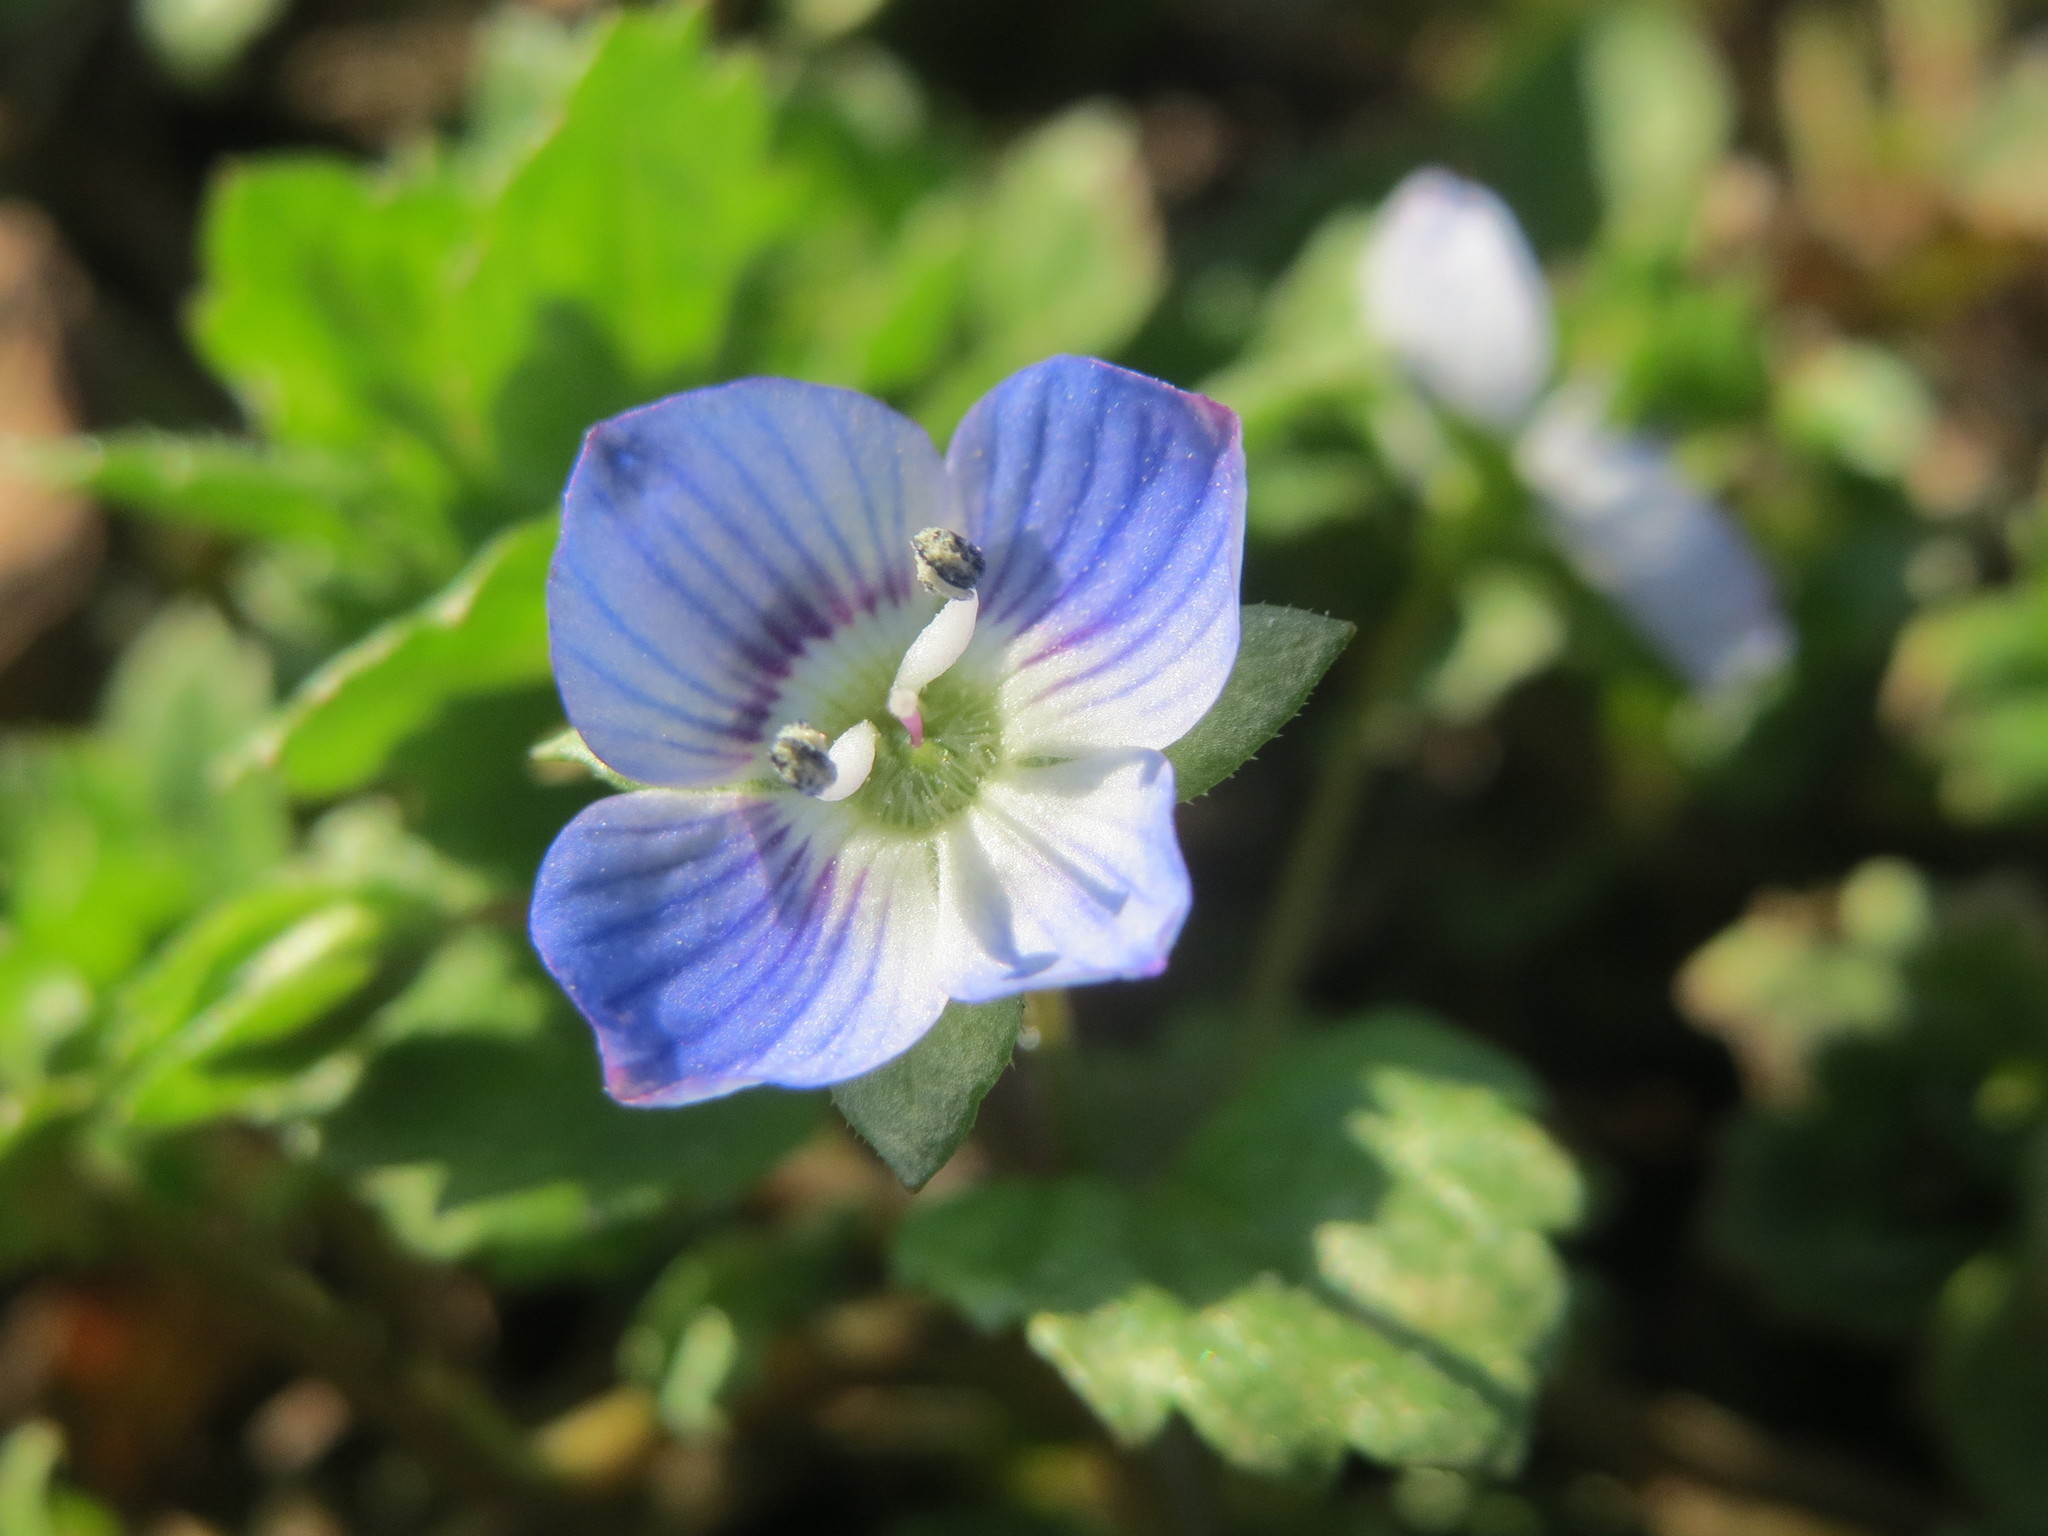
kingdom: Plantae
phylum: Tracheophyta
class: Magnoliopsida
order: Lamiales
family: Plantaginaceae
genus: Veronica
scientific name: Veronica persica
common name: Common field-speedwell
